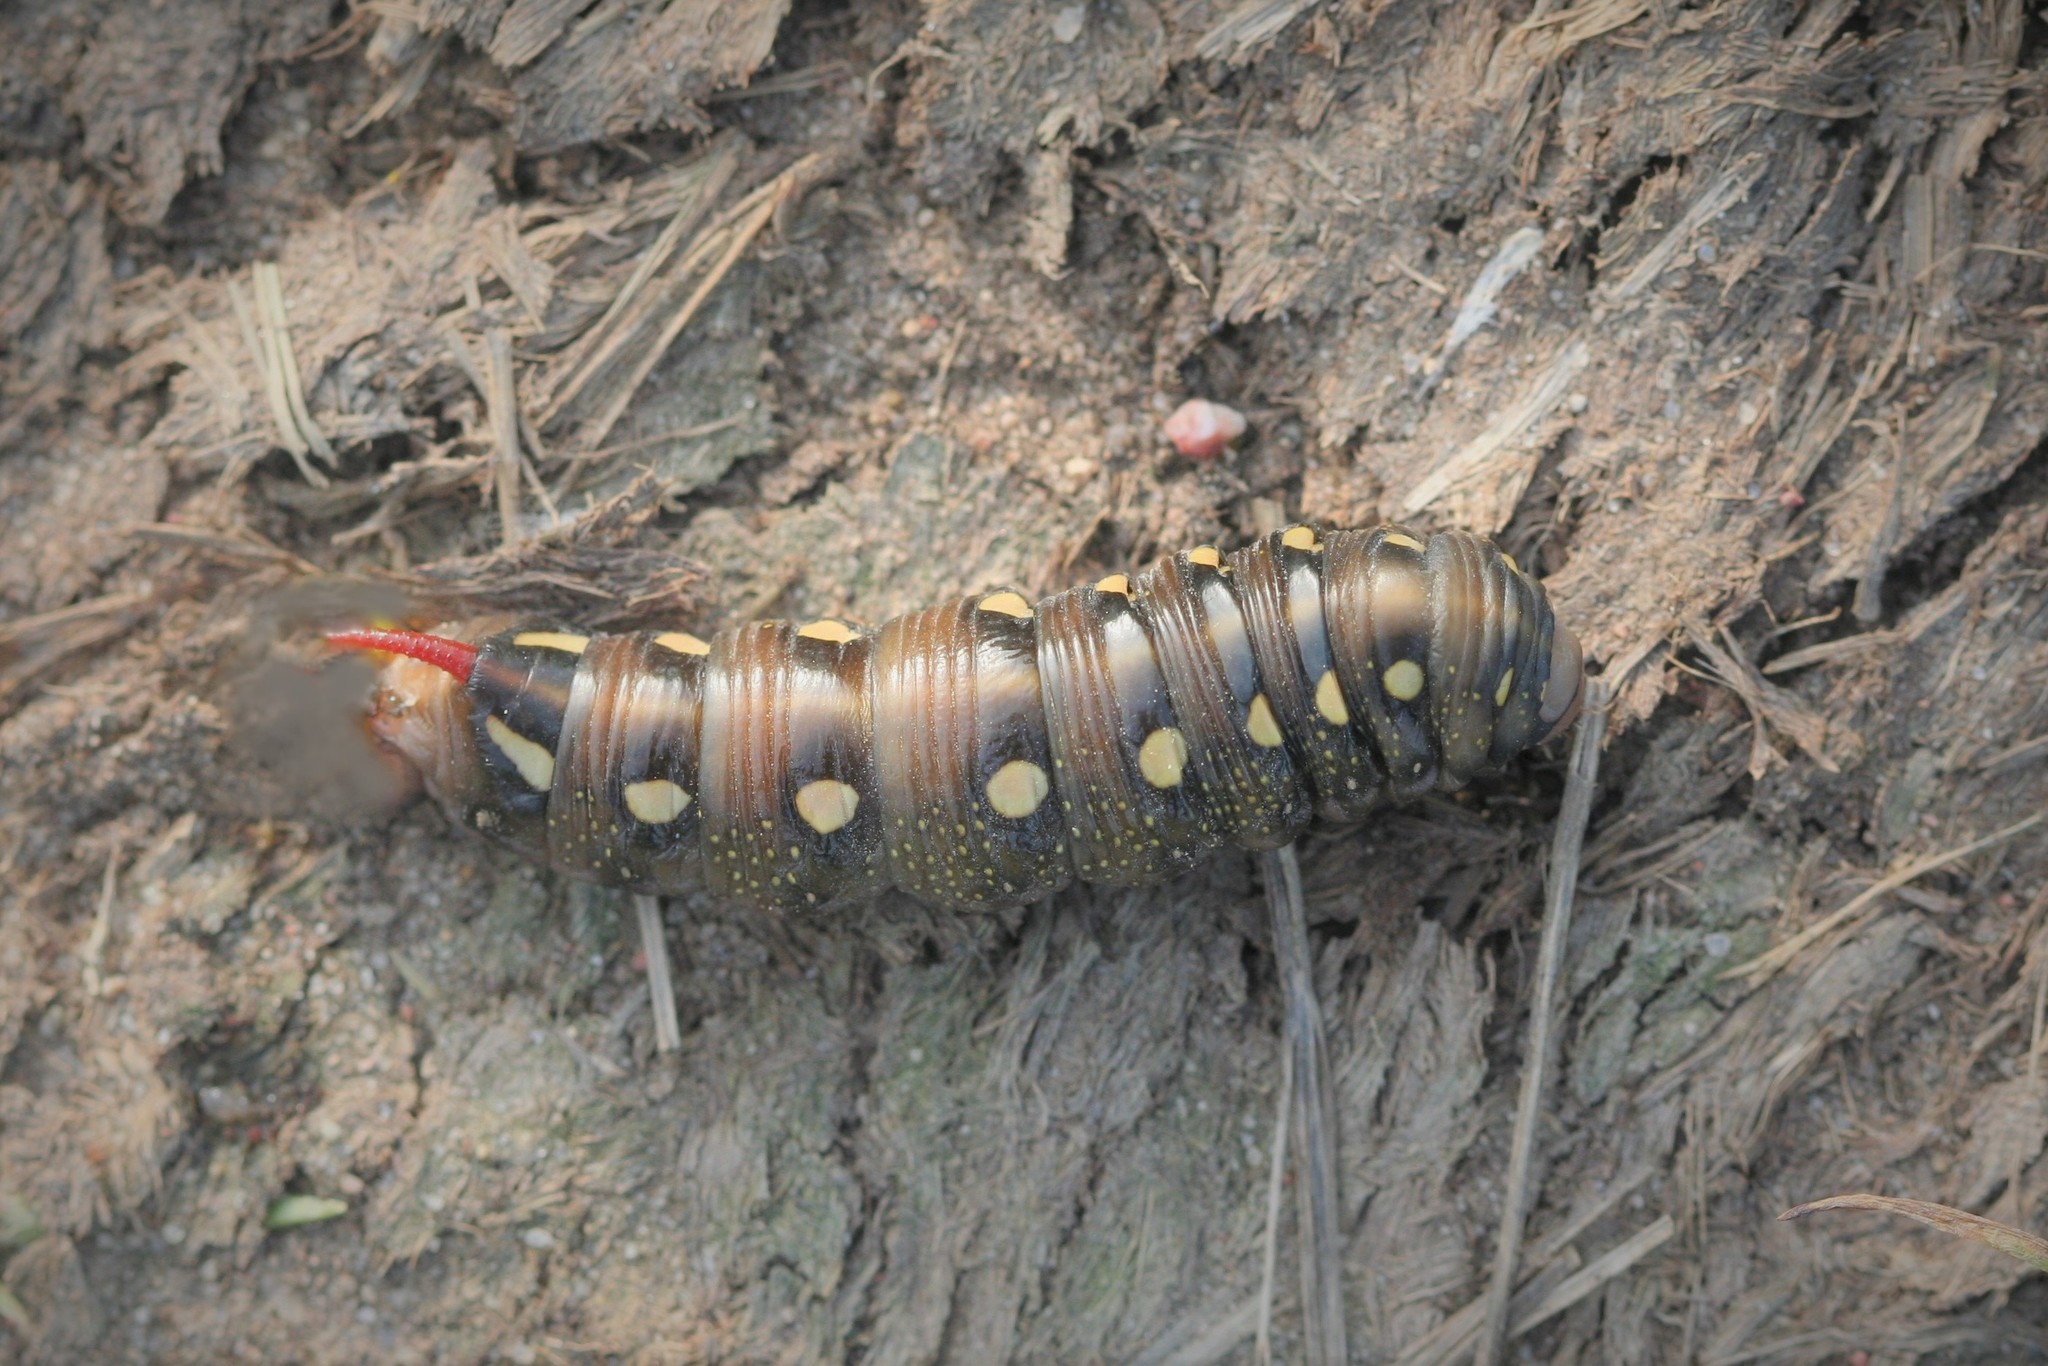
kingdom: Animalia
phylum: Arthropoda
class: Insecta
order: Lepidoptera
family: Sphingidae
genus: Hyles
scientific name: Hyles gallii
